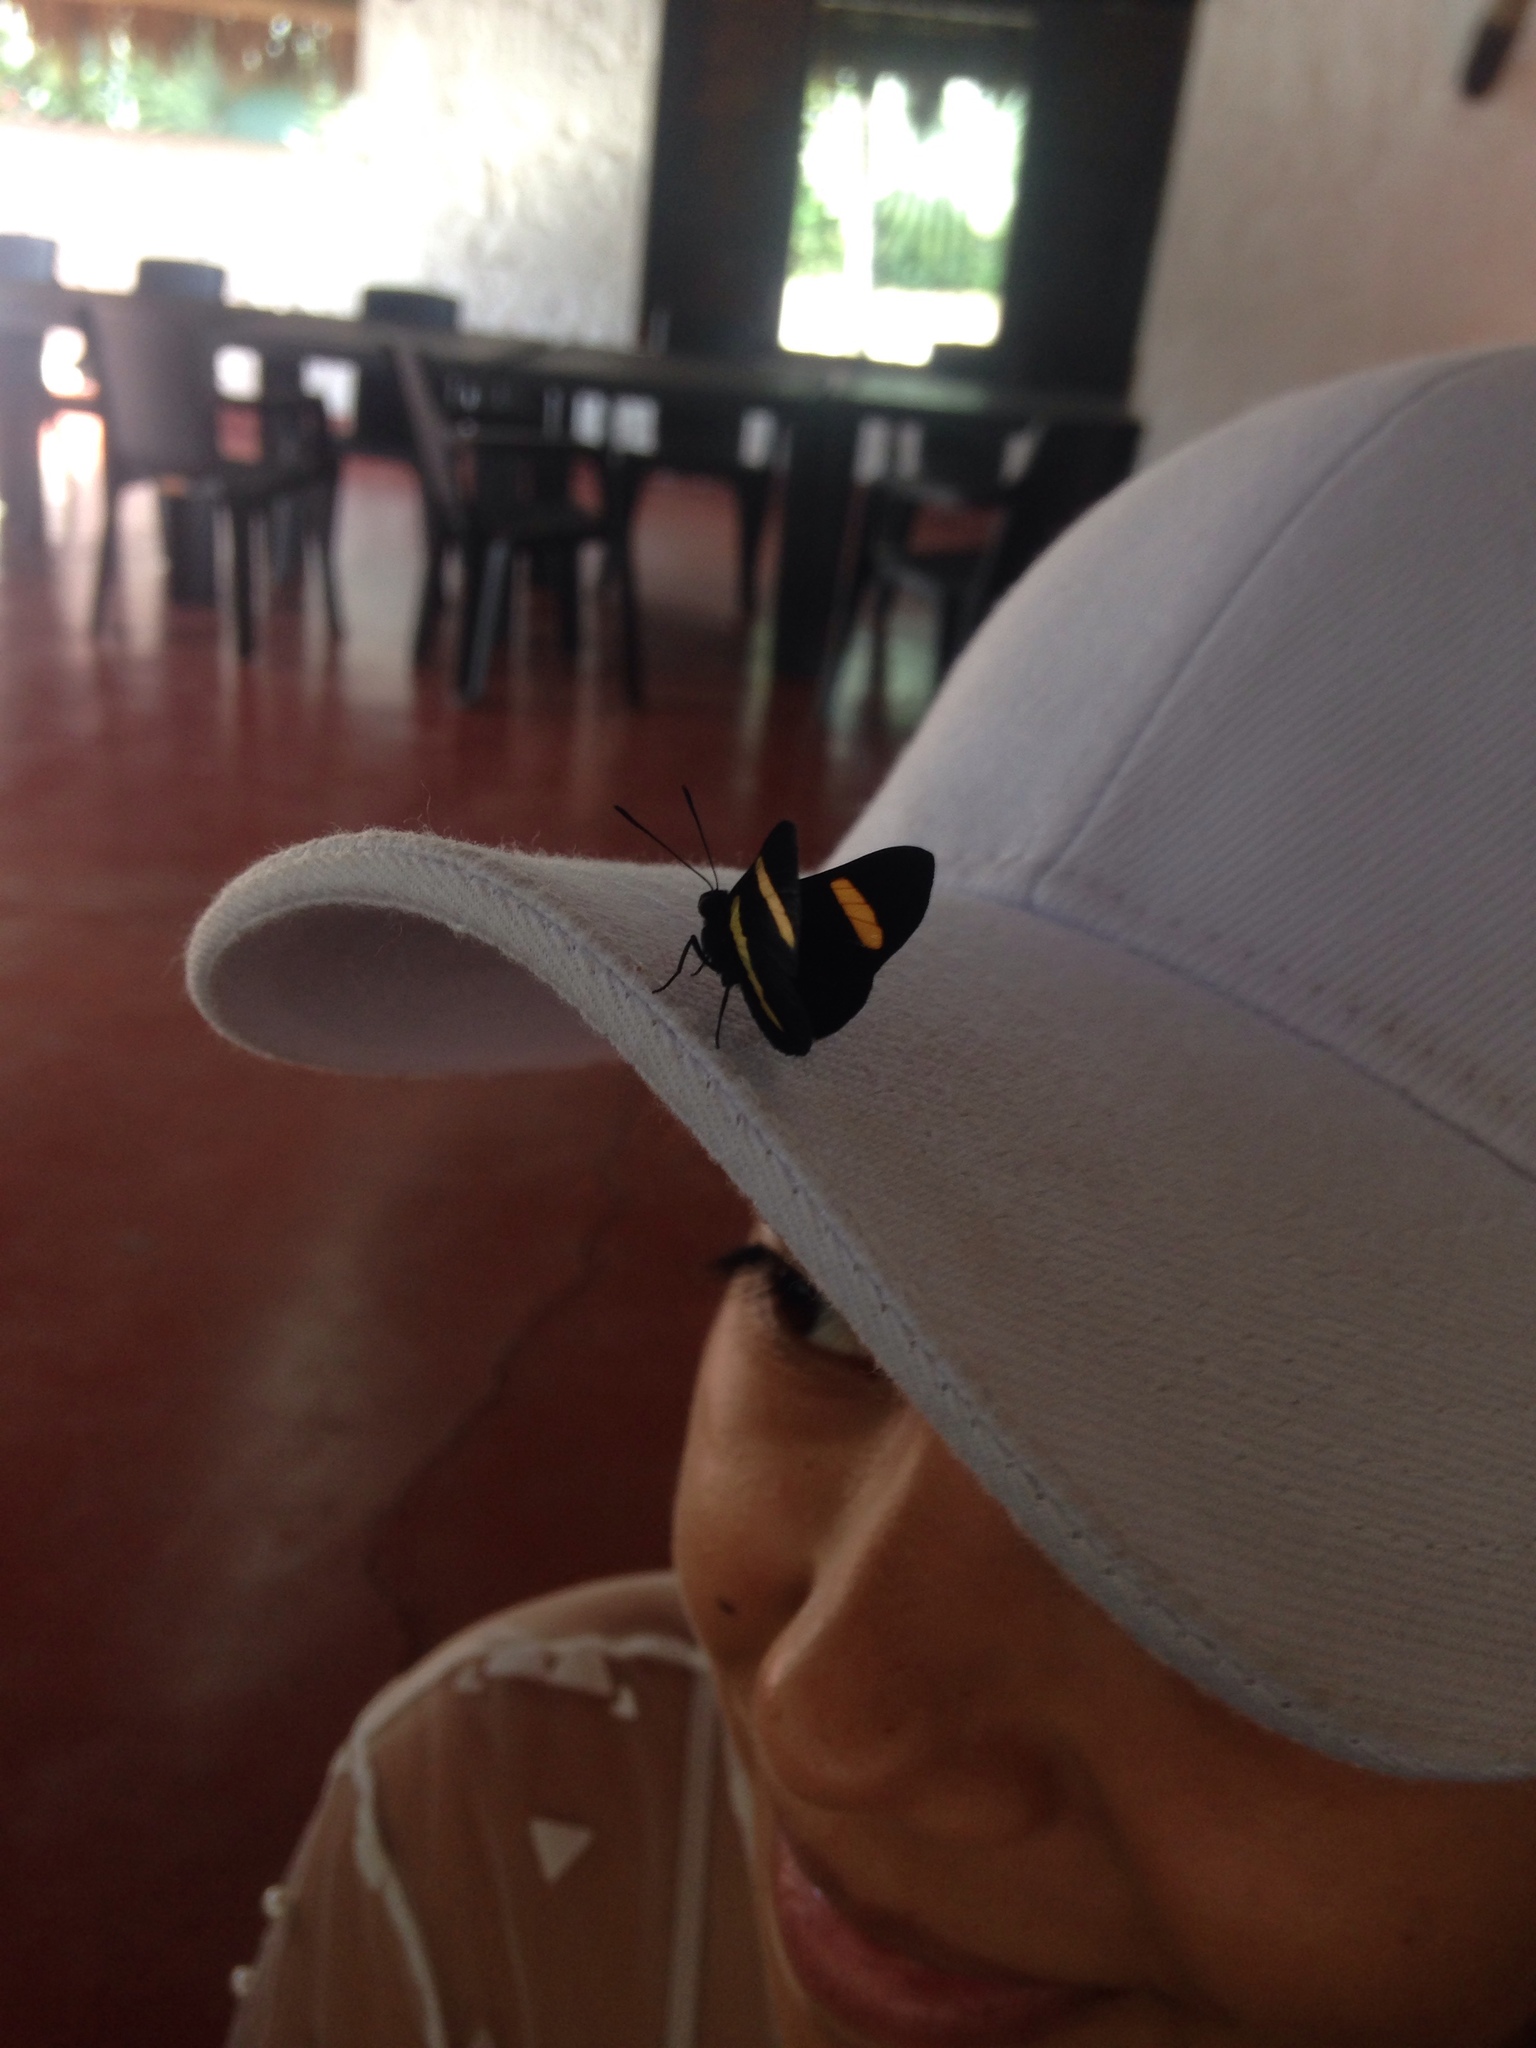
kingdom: Animalia
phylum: Arthropoda
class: Insecta
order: Lepidoptera
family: Lycaenidae
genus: Melanis
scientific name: Melanis agyrtus
